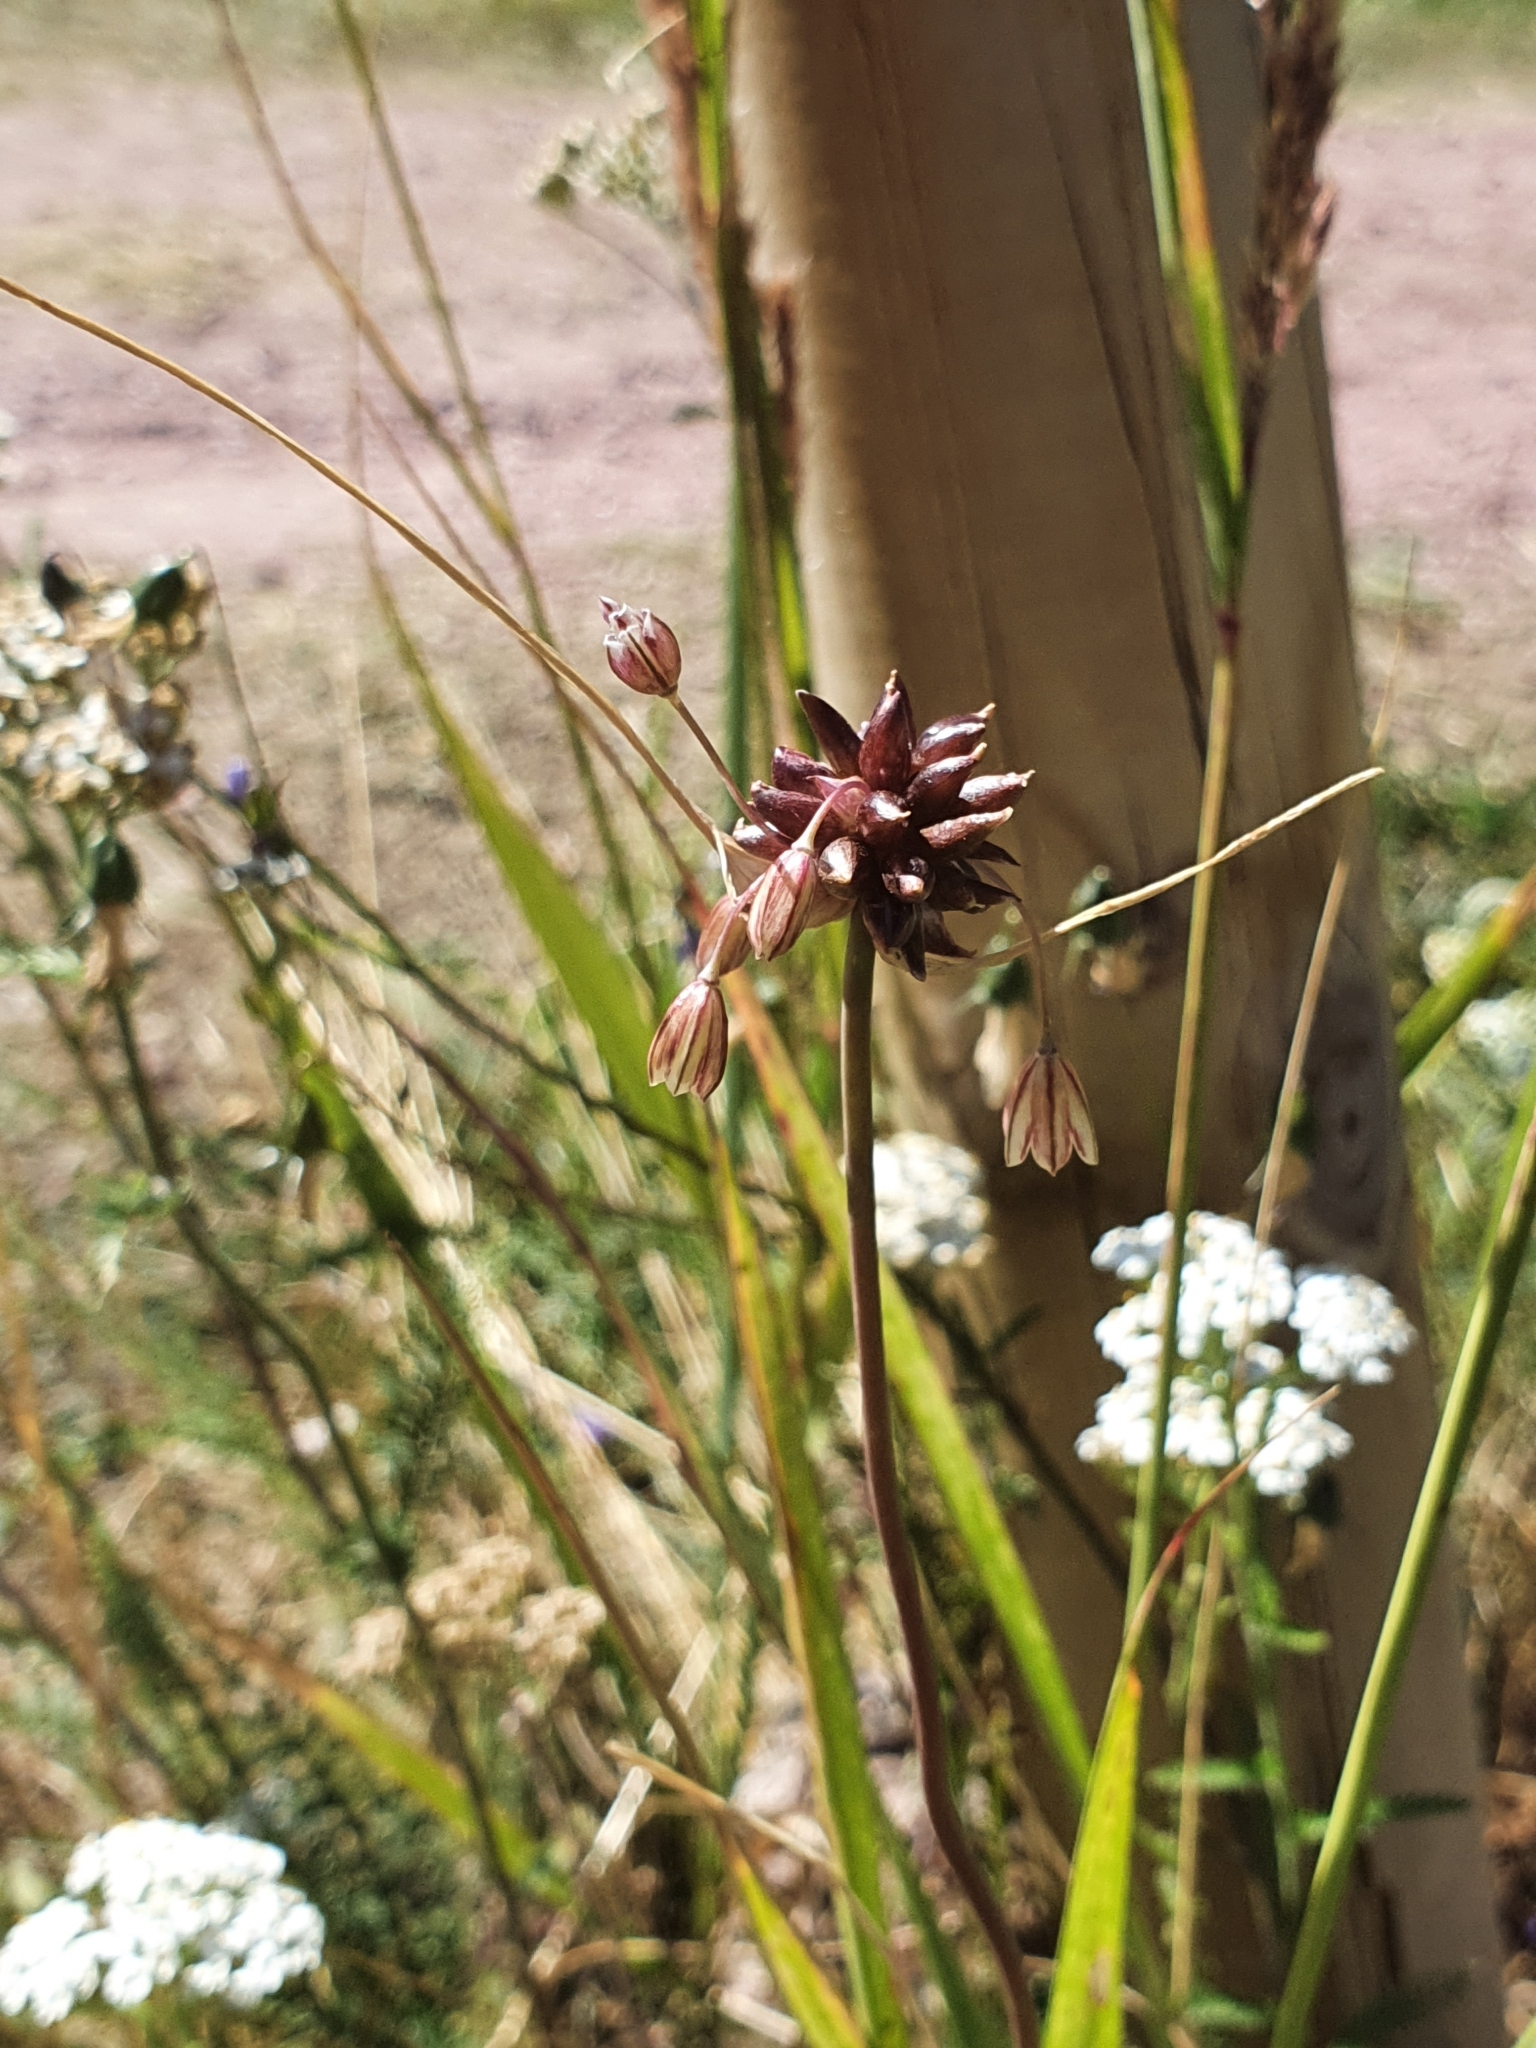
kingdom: Plantae
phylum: Tracheophyta
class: Liliopsida
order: Asparagales
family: Amaryllidaceae
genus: Allium
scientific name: Allium oleraceum
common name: Field garlic
